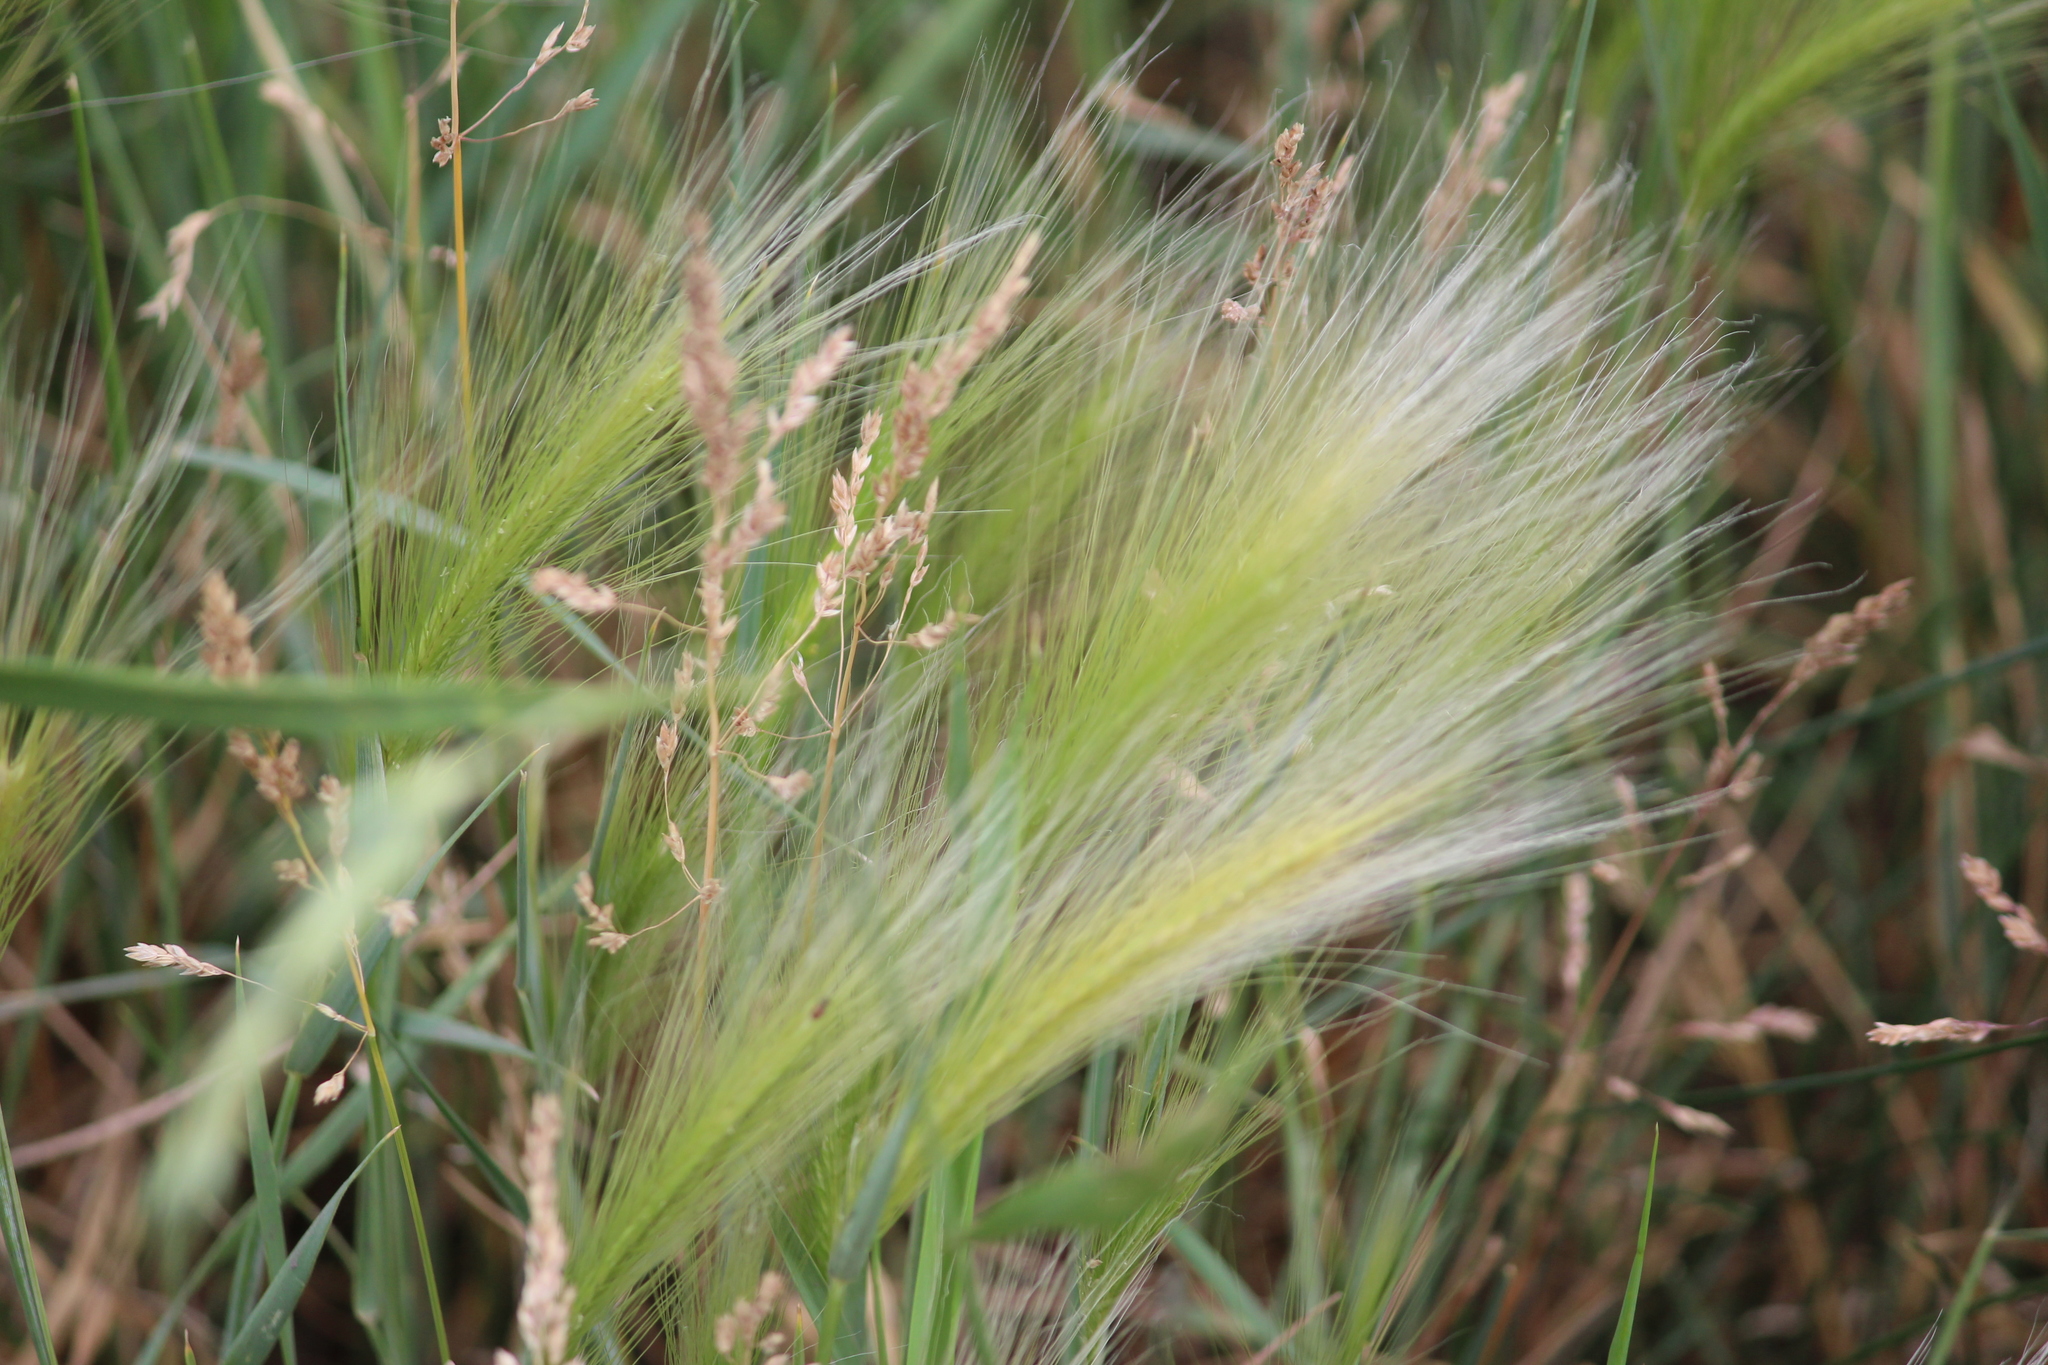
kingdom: Plantae
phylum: Tracheophyta
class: Liliopsida
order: Poales
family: Poaceae
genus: Hordeum
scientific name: Hordeum jubatum
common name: Foxtail barley
